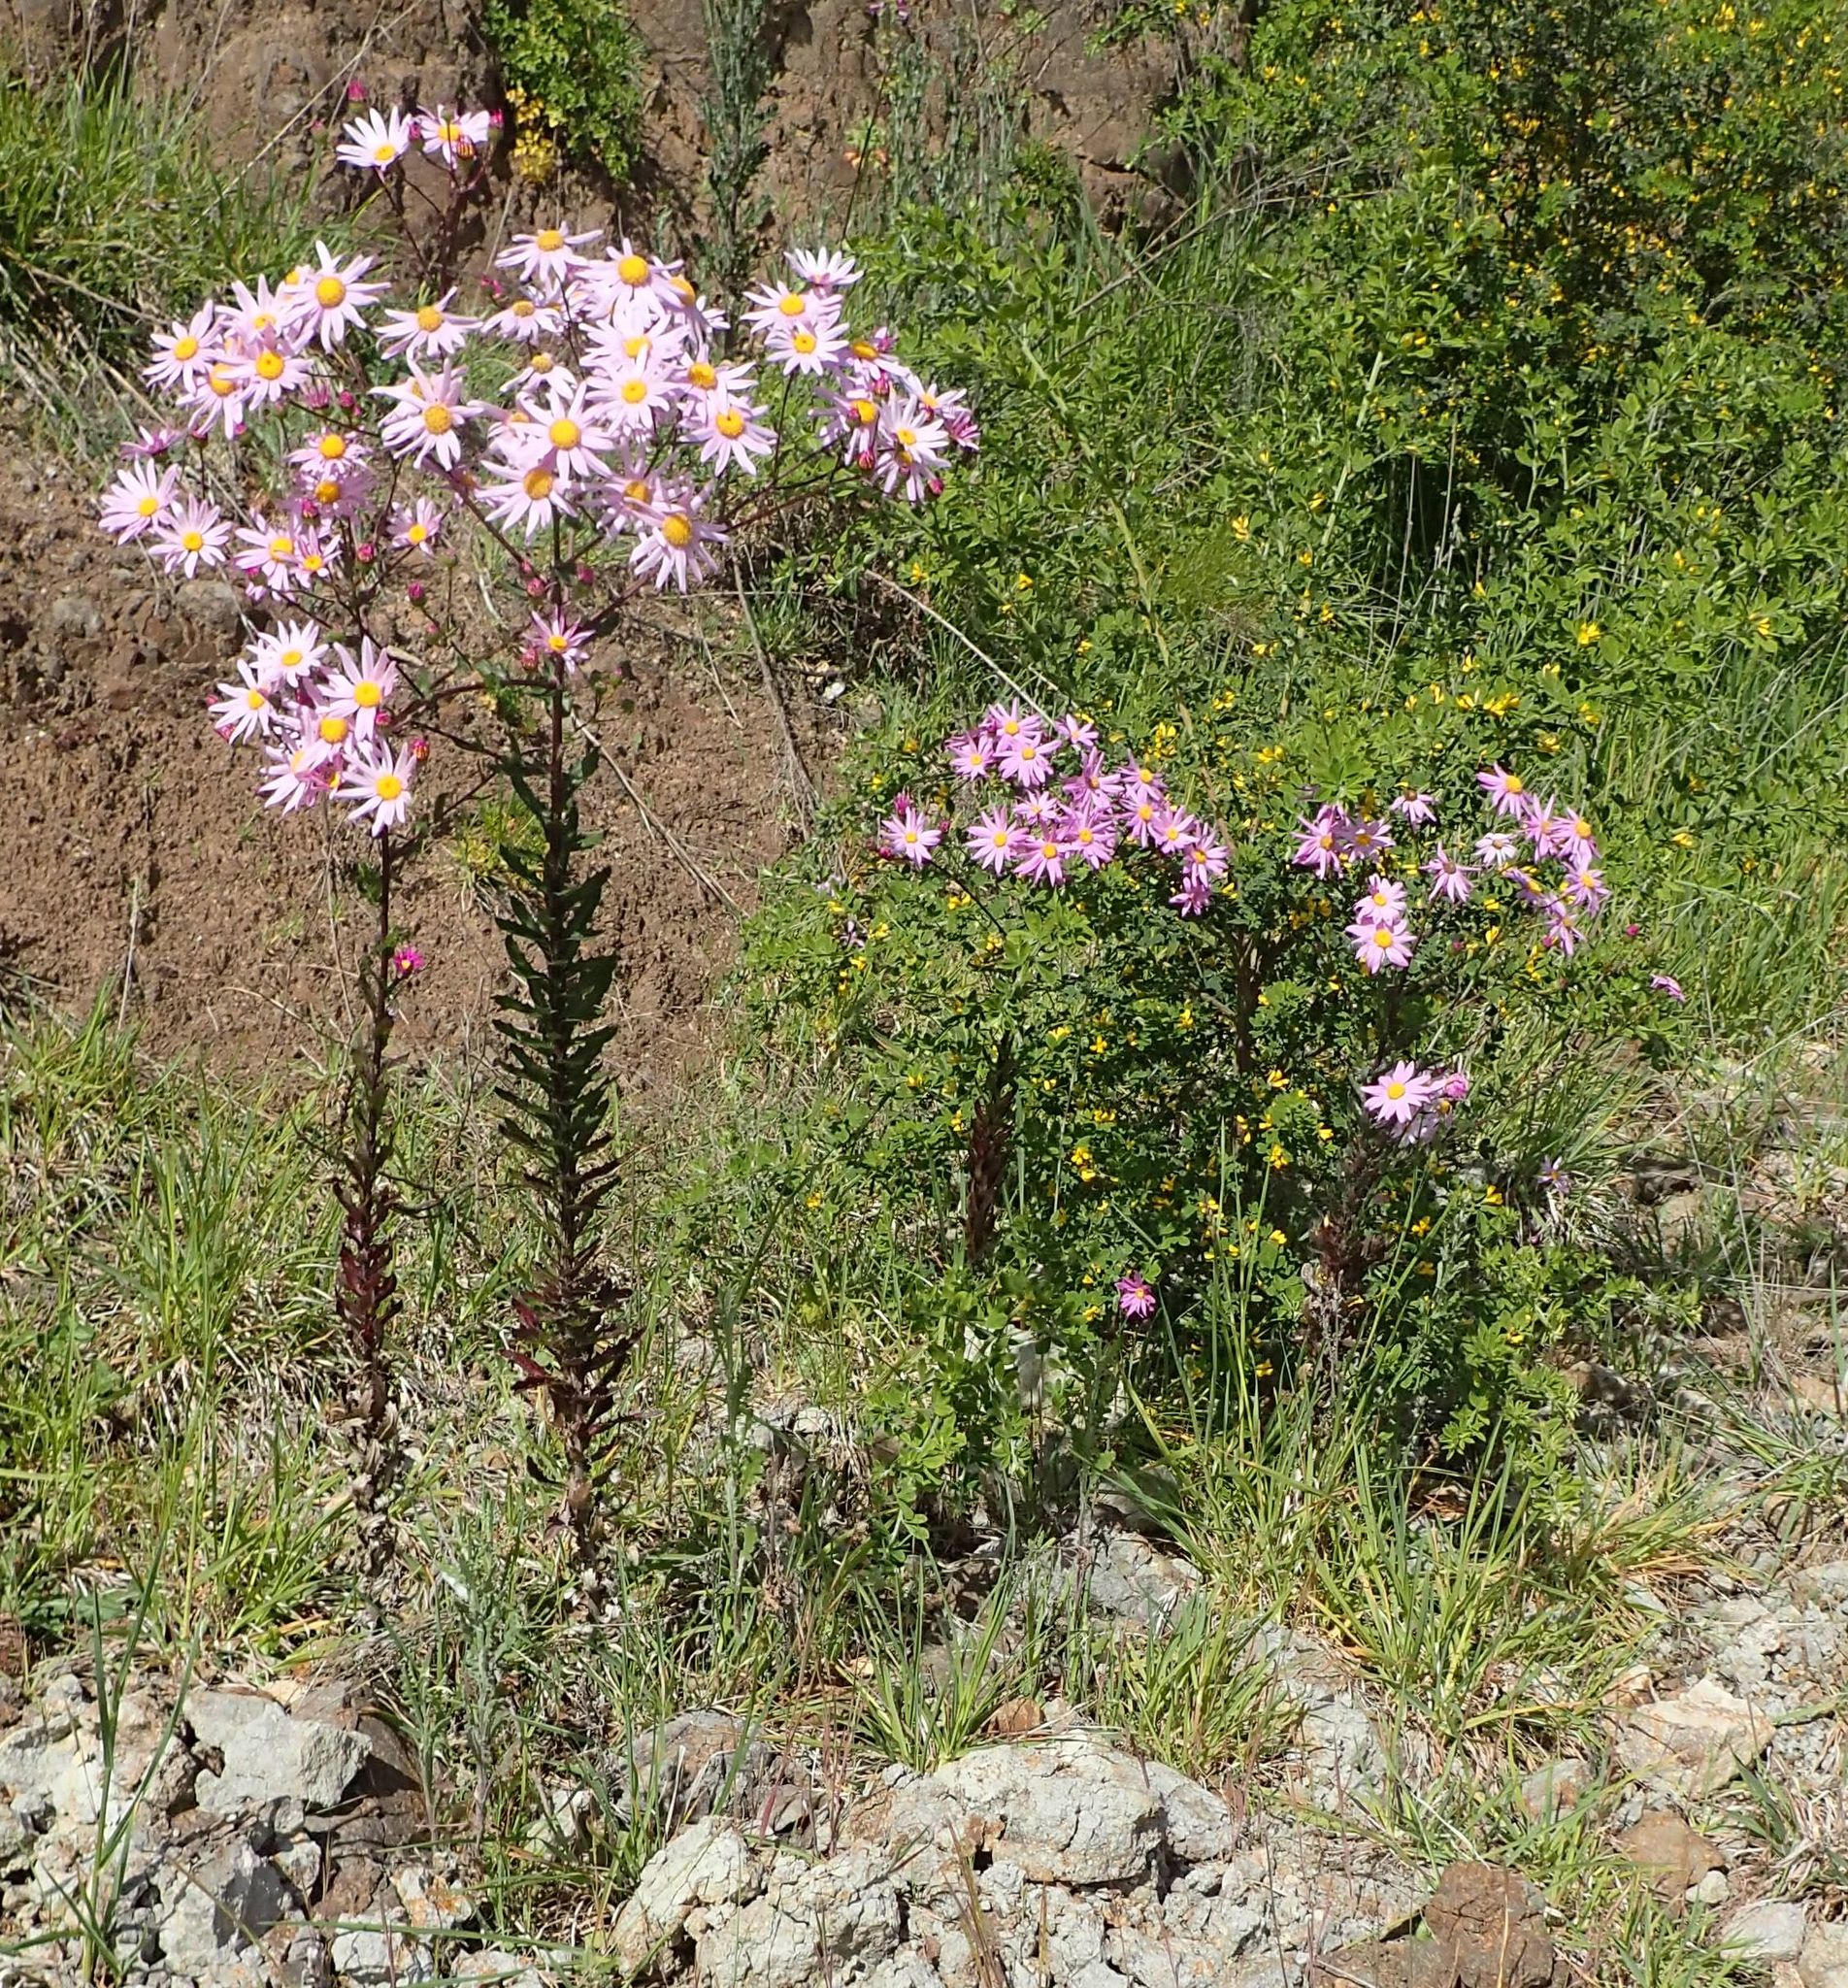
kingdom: Plantae
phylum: Tracheophyta
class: Magnoliopsida
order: Asterales
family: Asteraceae
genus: Senecio
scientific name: Senecio glastifolius
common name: Woad-leaved ragwort
